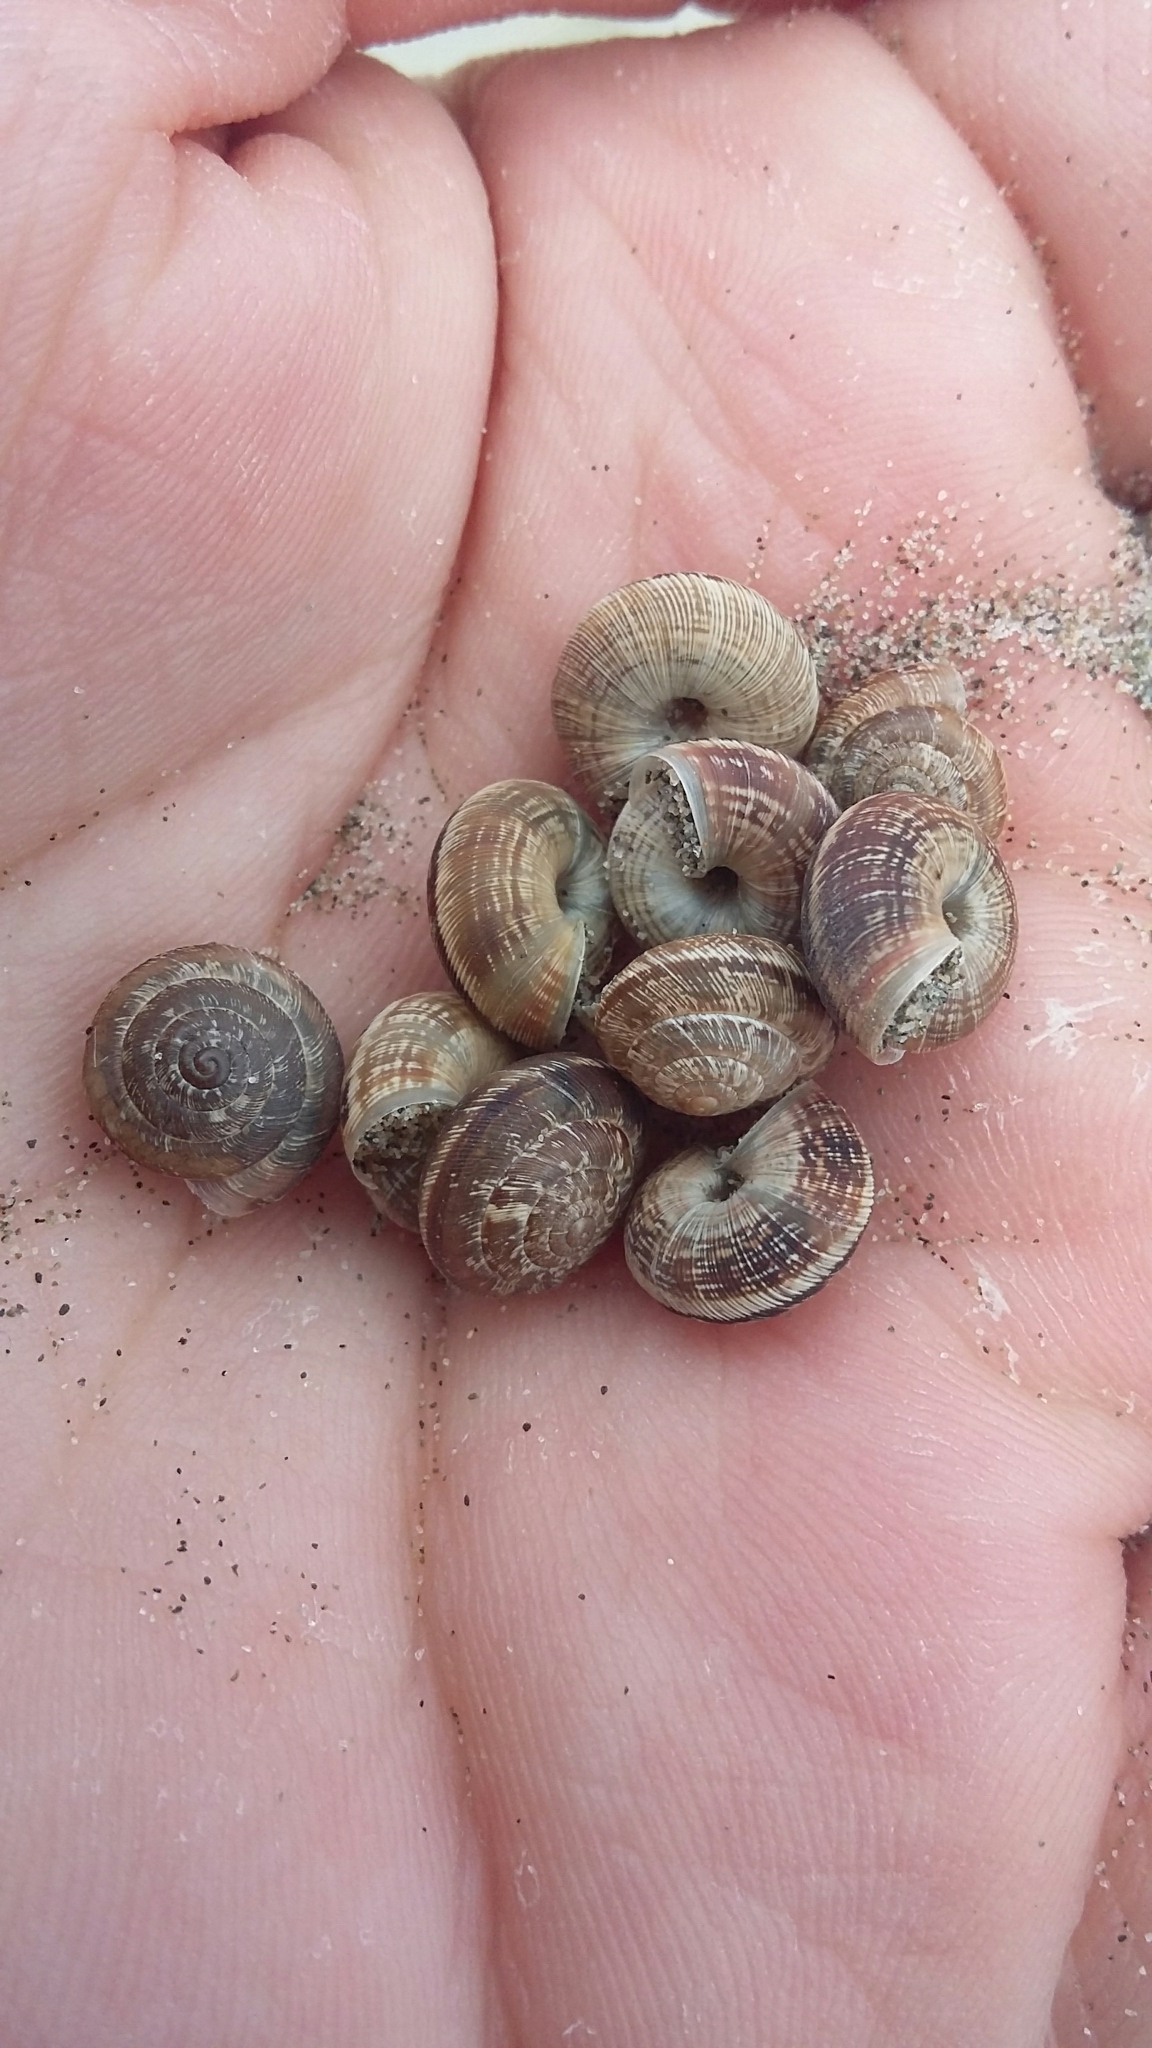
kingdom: Animalia
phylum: Mollusca
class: Gastropoda
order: Stylommatophora
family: Geomitridae
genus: Xeroplexa
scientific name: Xeroplexa intersecta
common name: Wrinkled snail
